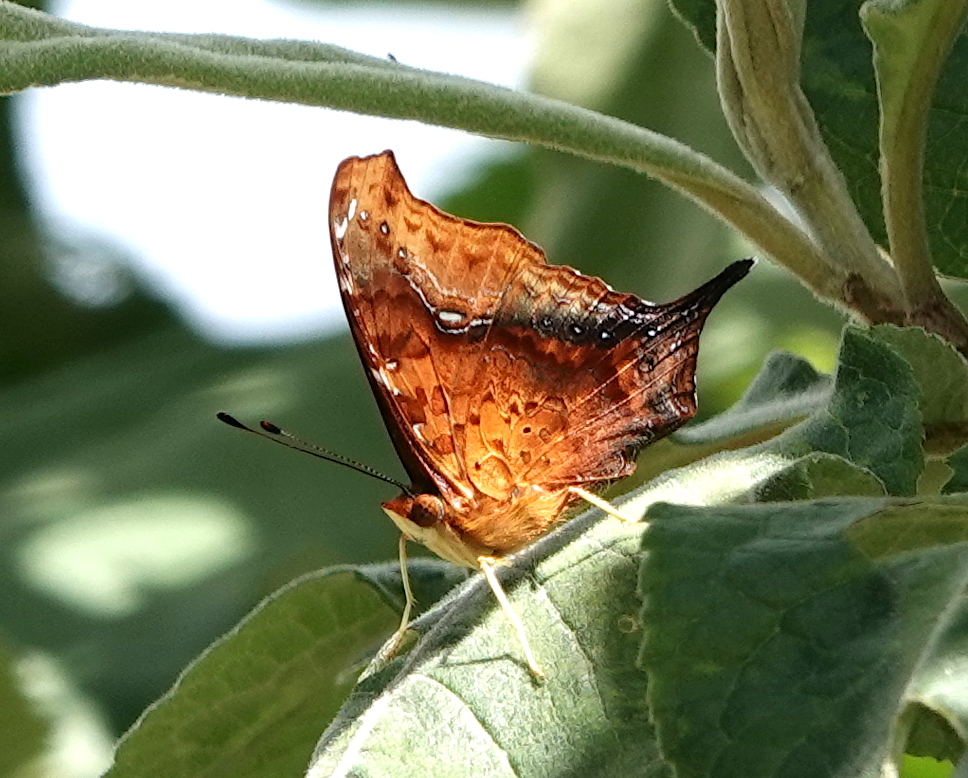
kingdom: Animalia
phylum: Arthropoda
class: Insecta
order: Lepidoptera
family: Nymphalidae
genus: Hypanartia
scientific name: Hypanartia dione
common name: Banded mapwing
